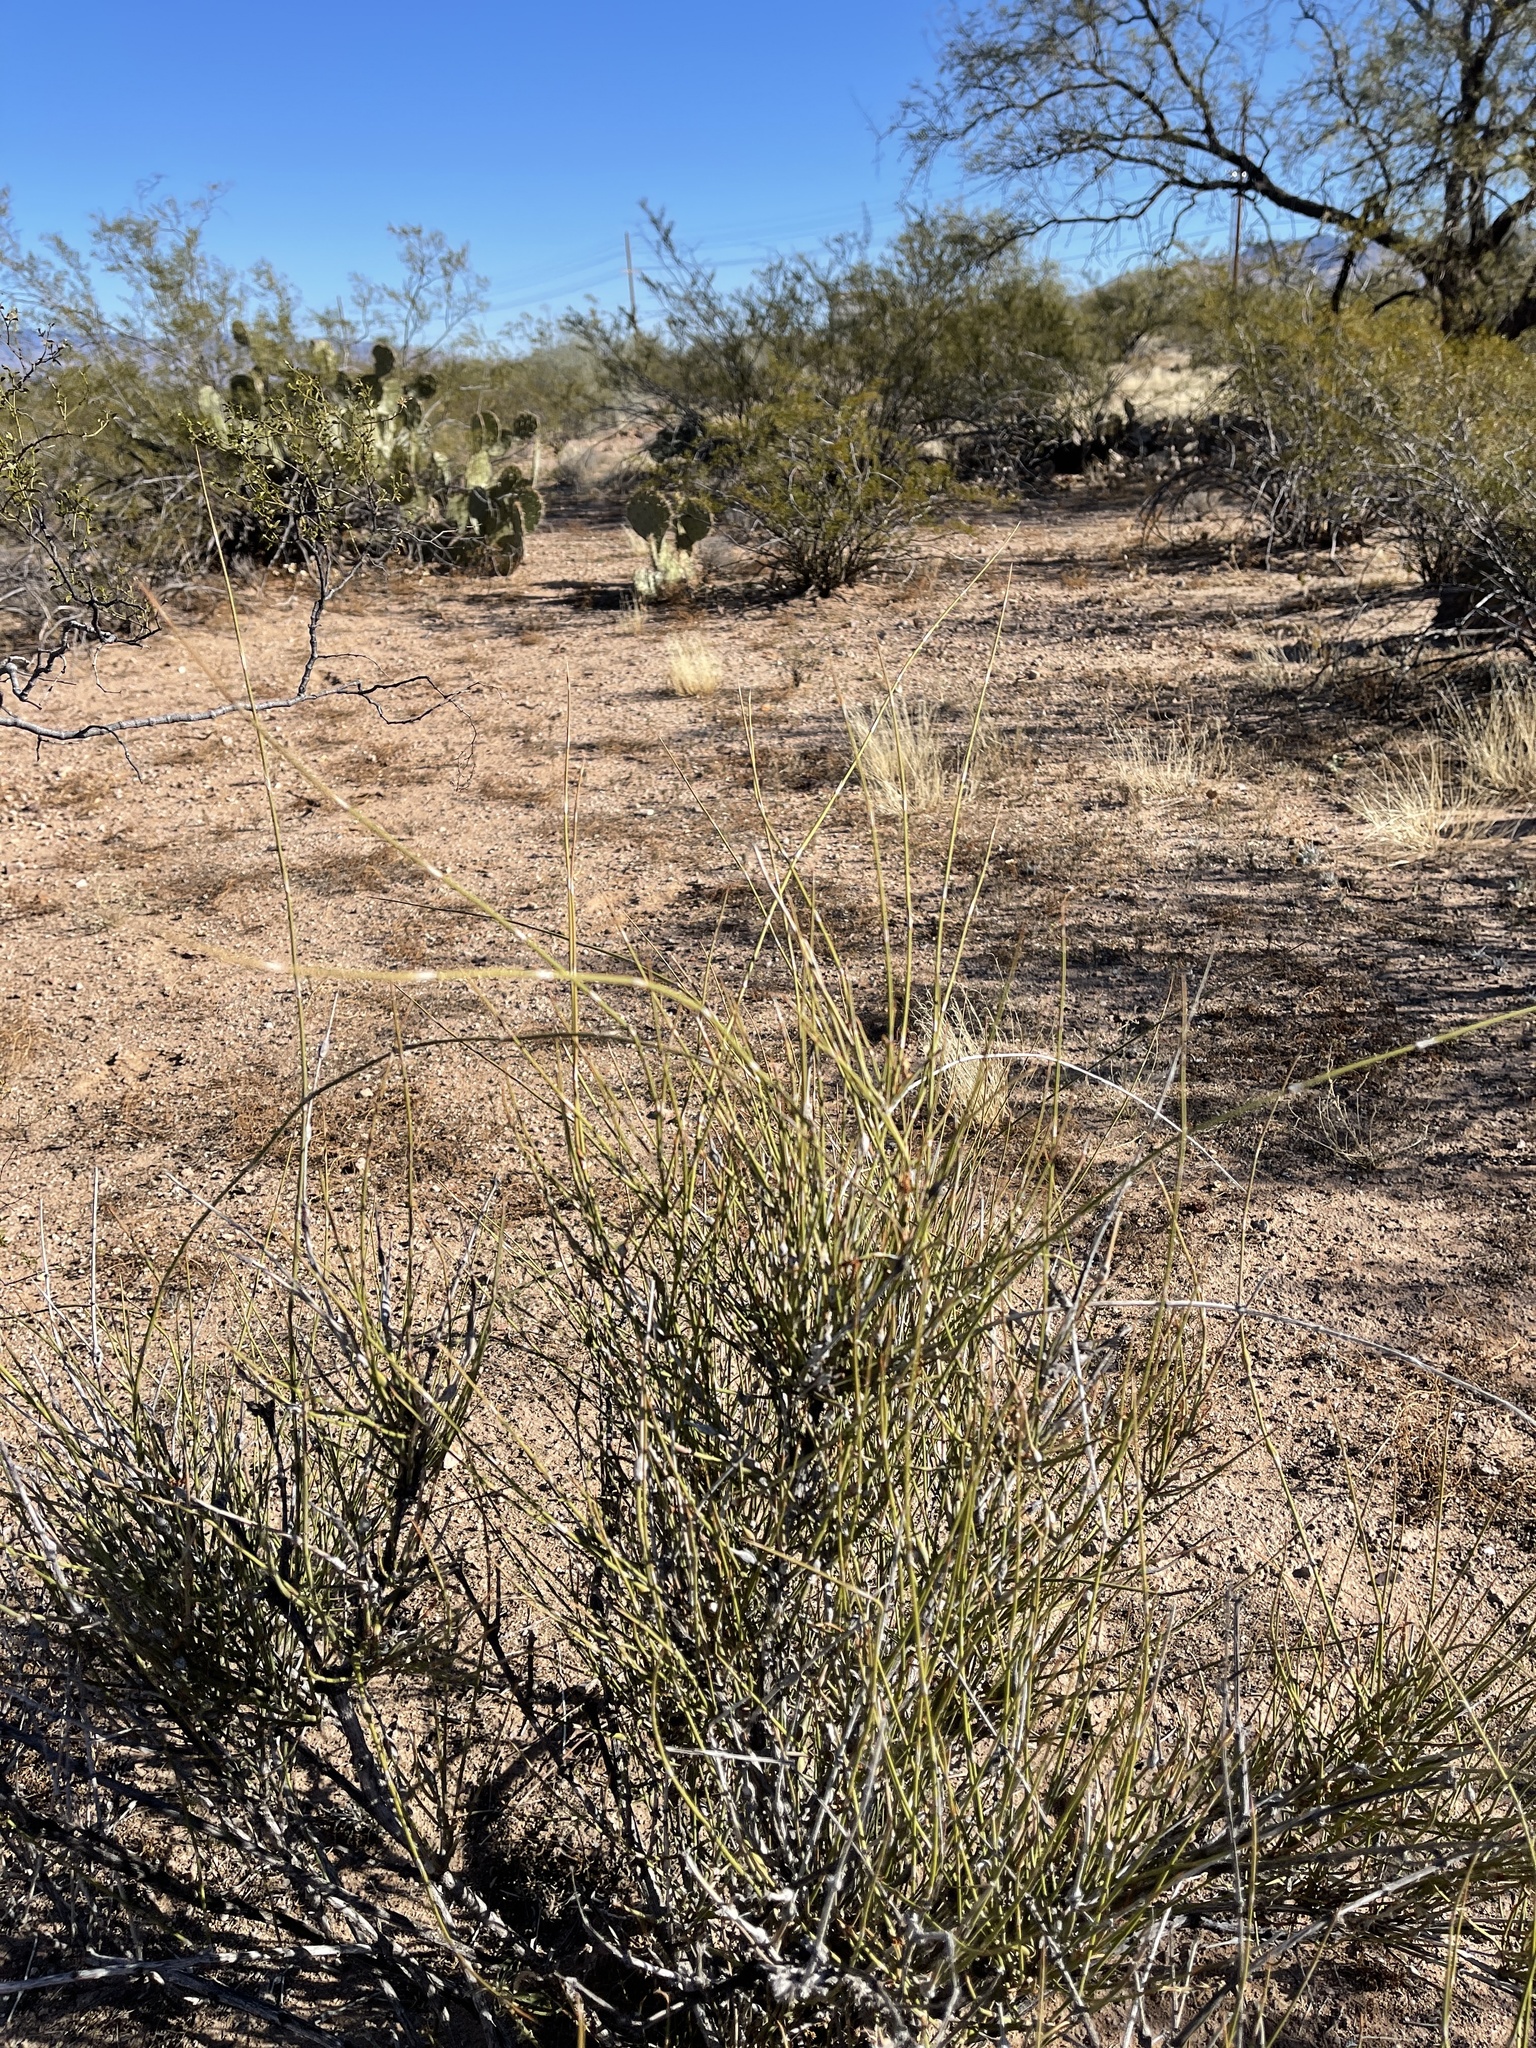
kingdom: Plantae
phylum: Tracheophyta
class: Gnetopsida
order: Ephedrales
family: Ephedraceae
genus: Ephedra
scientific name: Ephedra trifurca
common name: Mexican-tea
